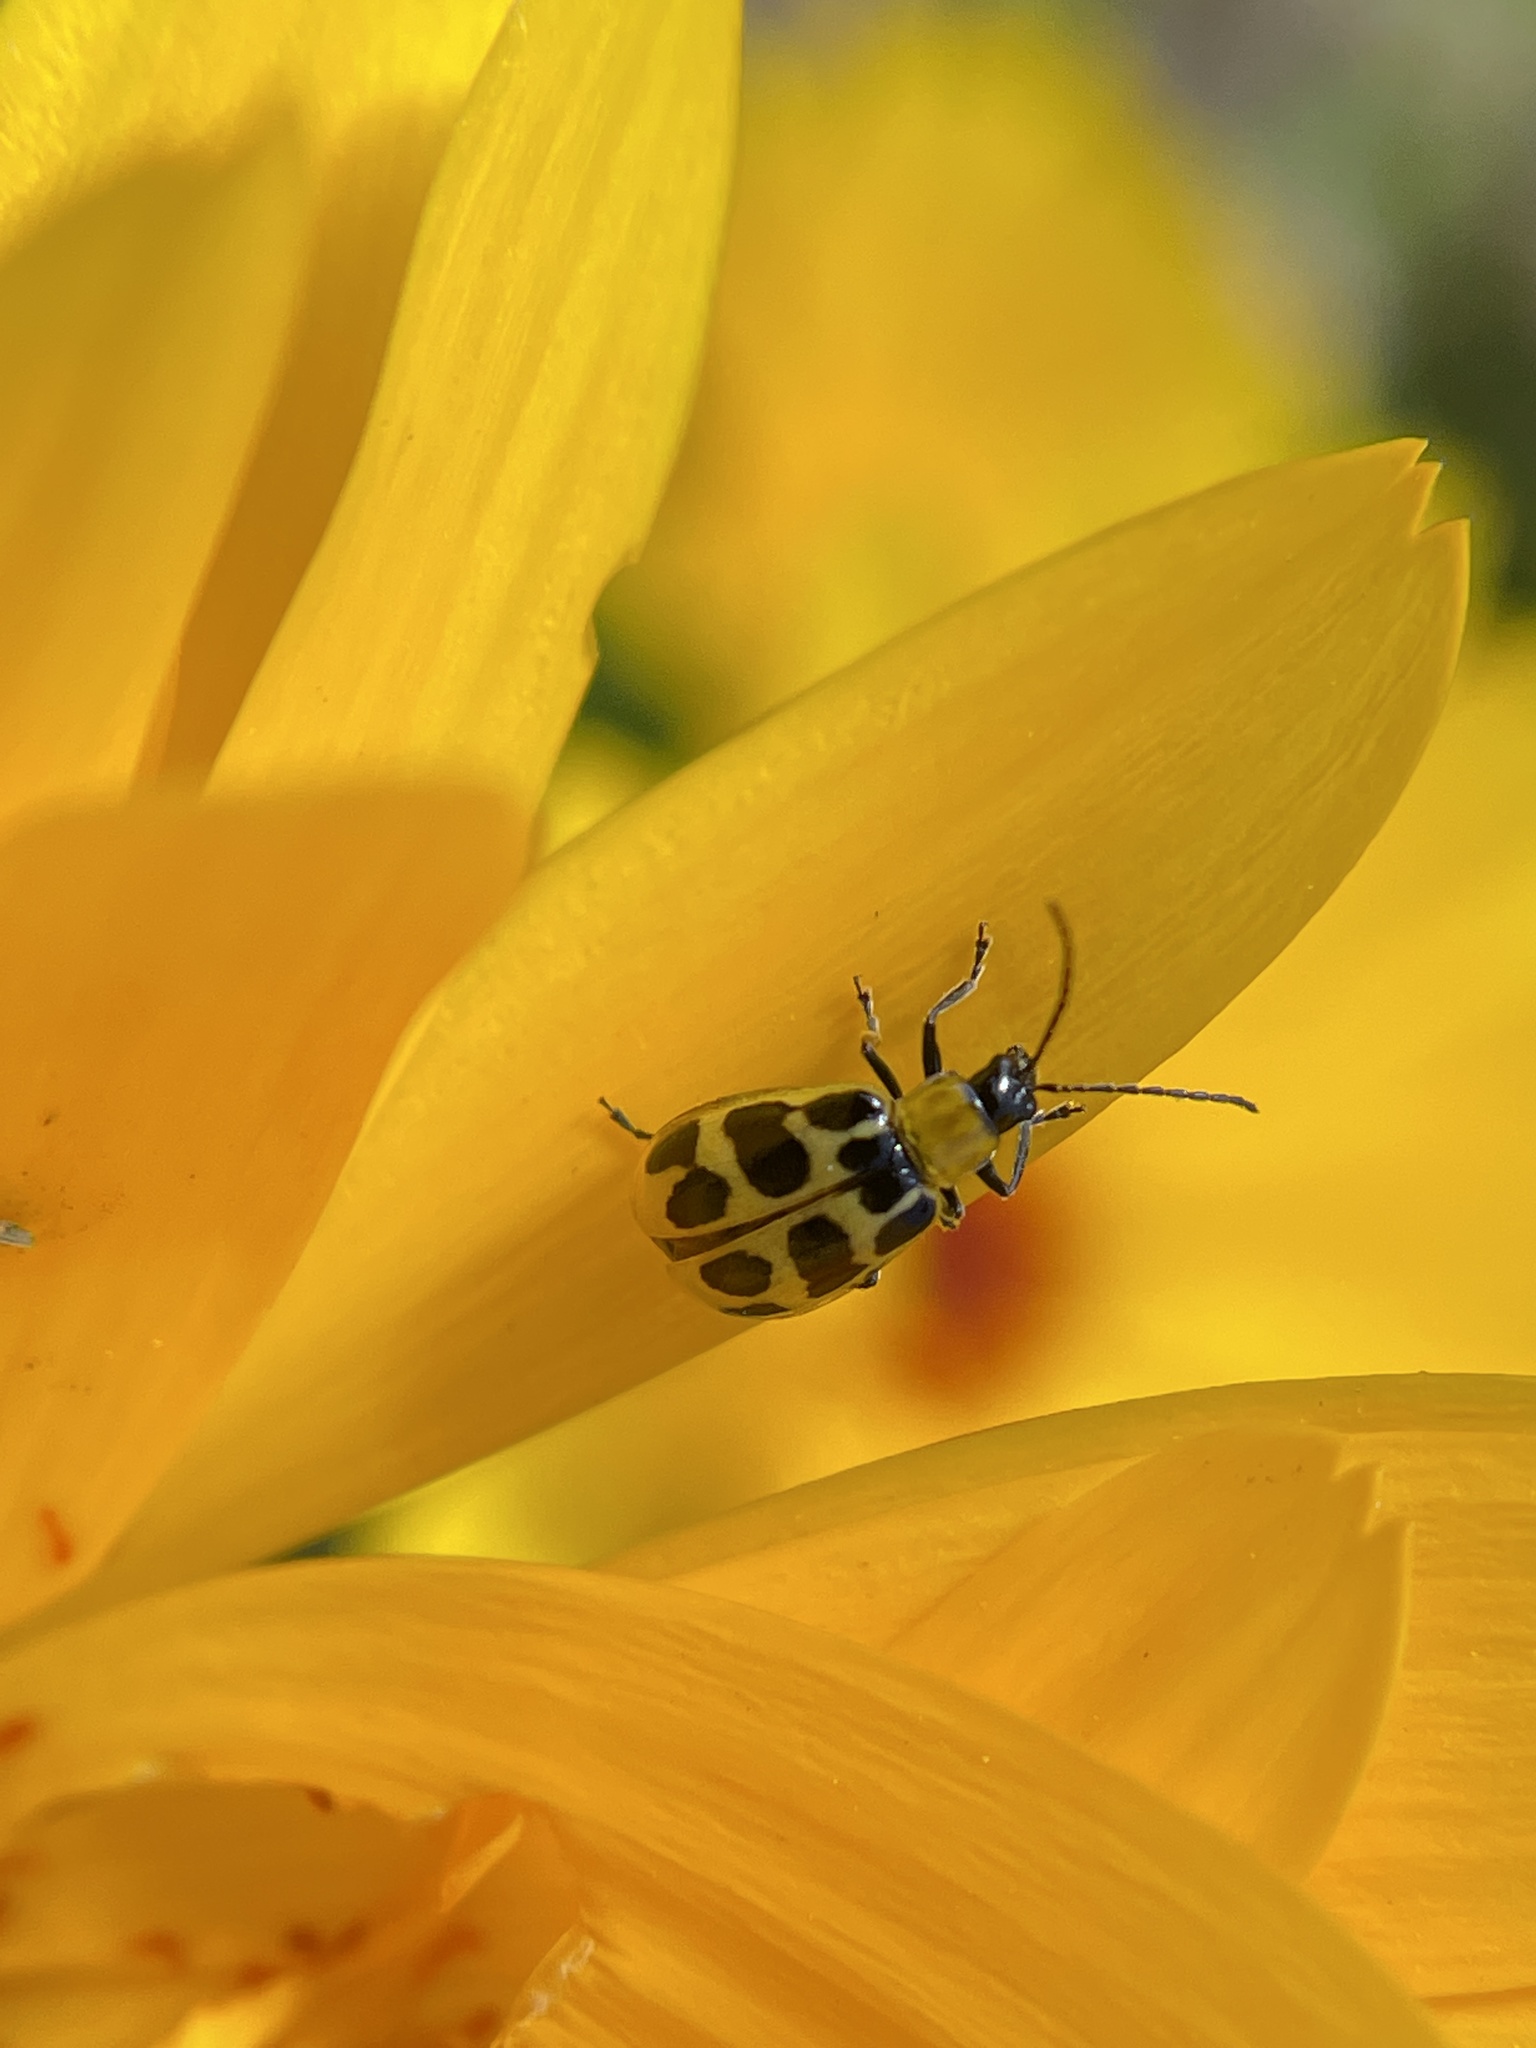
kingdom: Animalia
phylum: Arthropoda
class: Insecta
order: Coleoptera
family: Chrysomelidae
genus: Diabrotica
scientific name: Diabrotica undecimpunctata
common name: Spotted cucumber beetle
